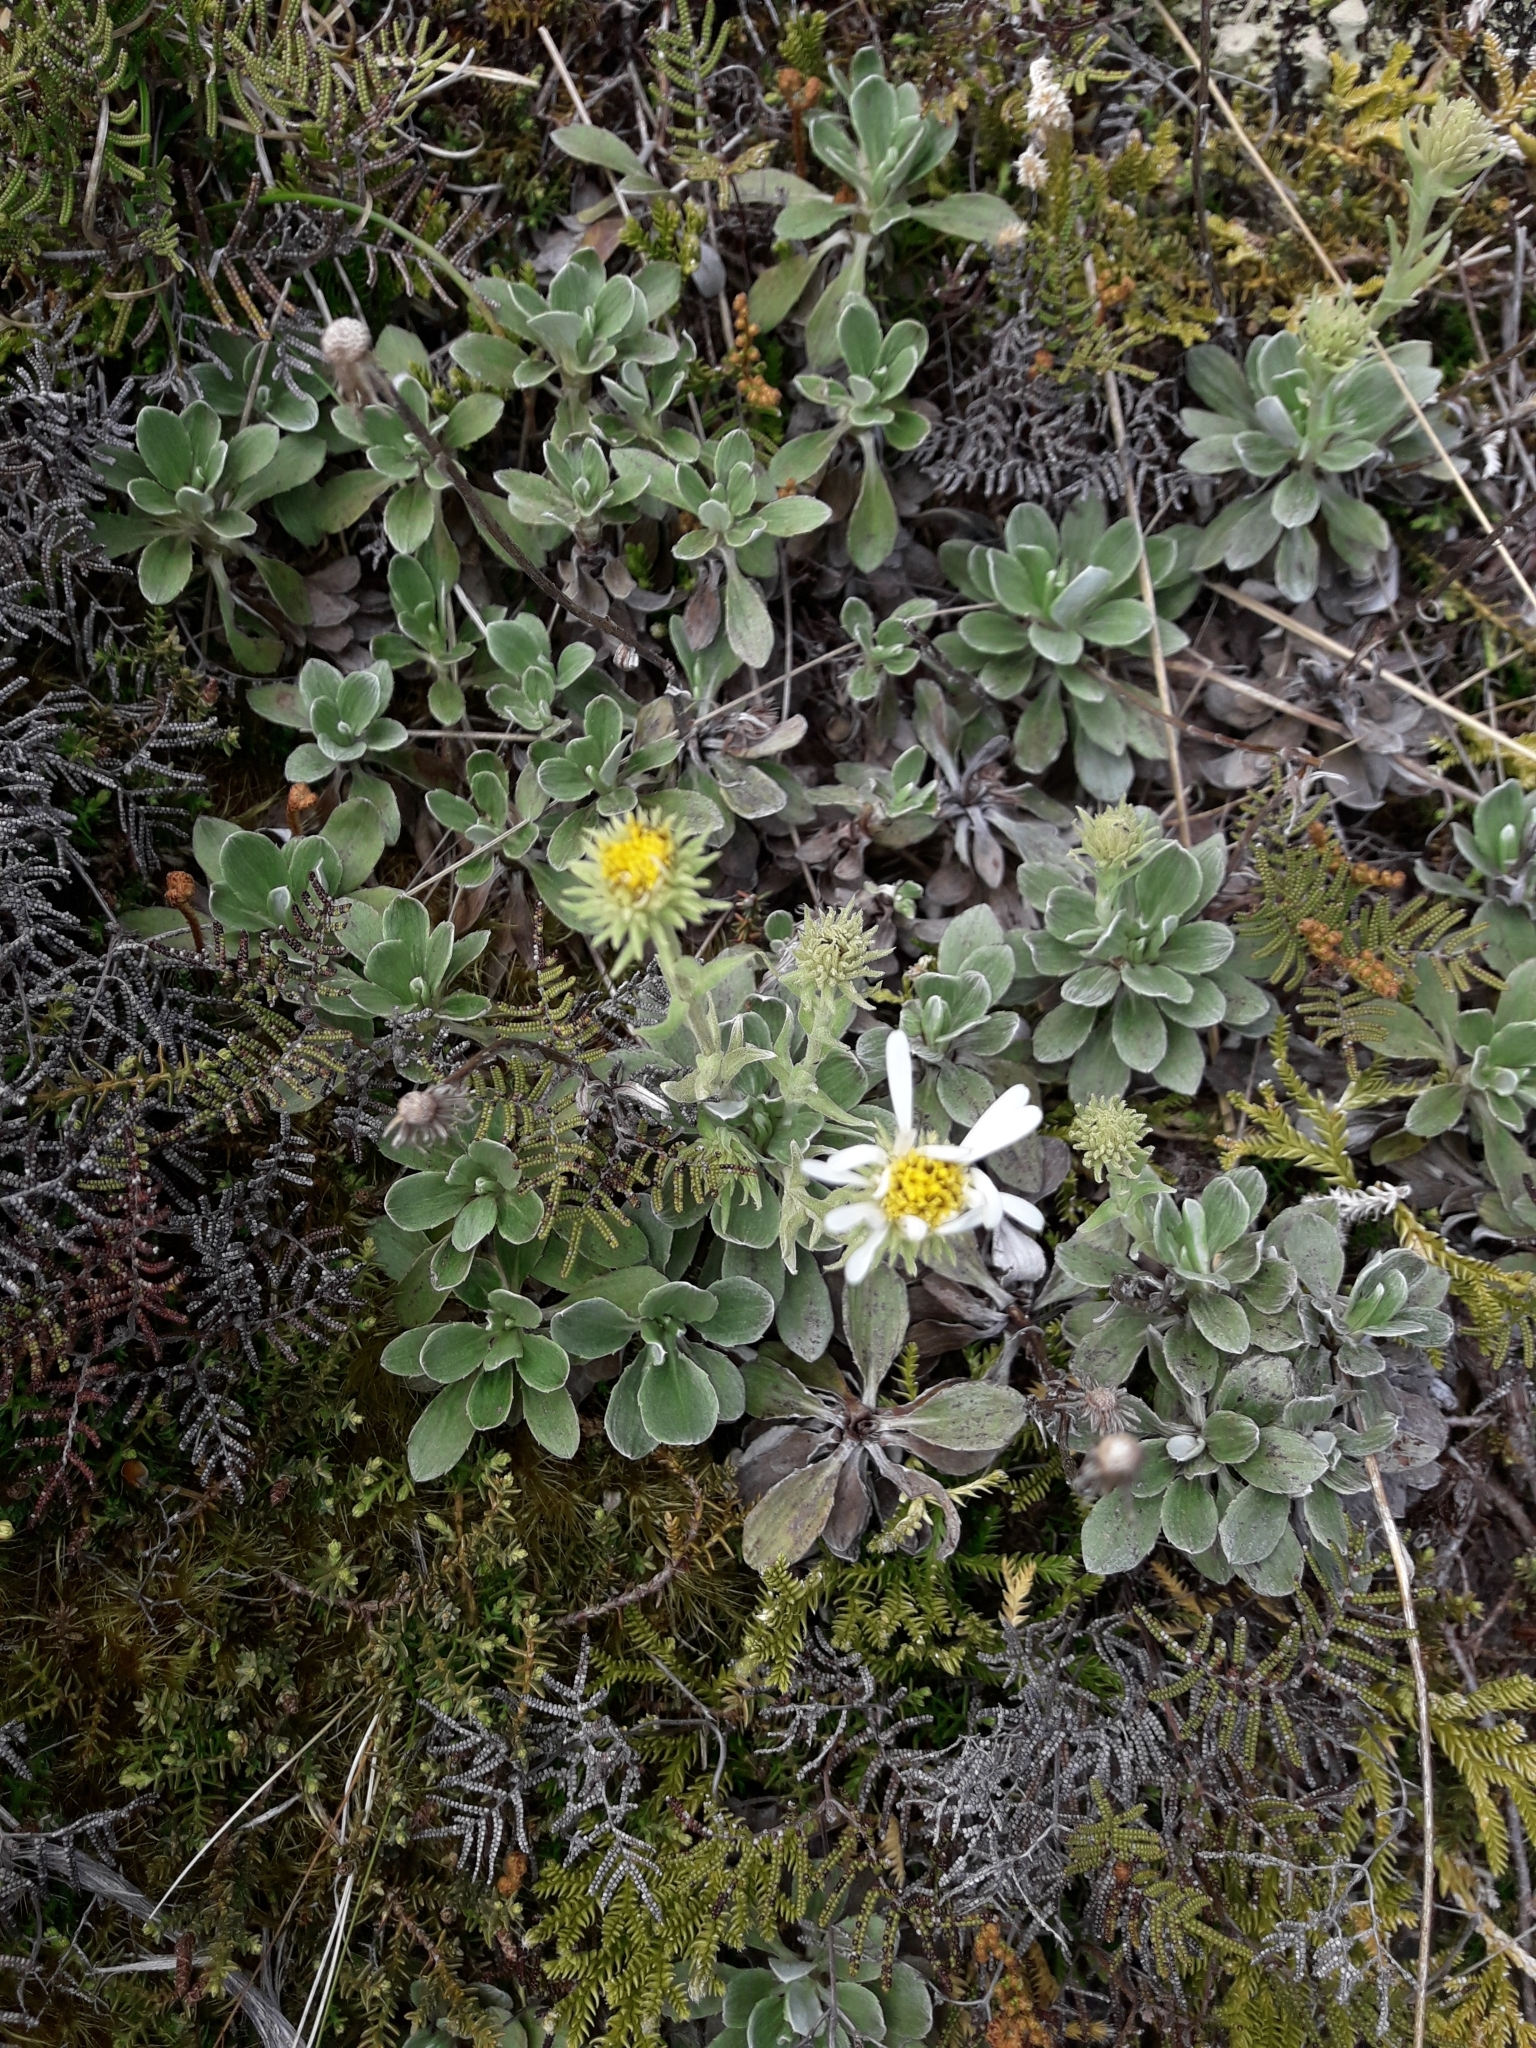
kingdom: Plantae
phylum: Tracheophyta
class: Magnoliopsida
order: Asterales
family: Asteraceae
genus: Celmisia
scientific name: Celmisia discolor
